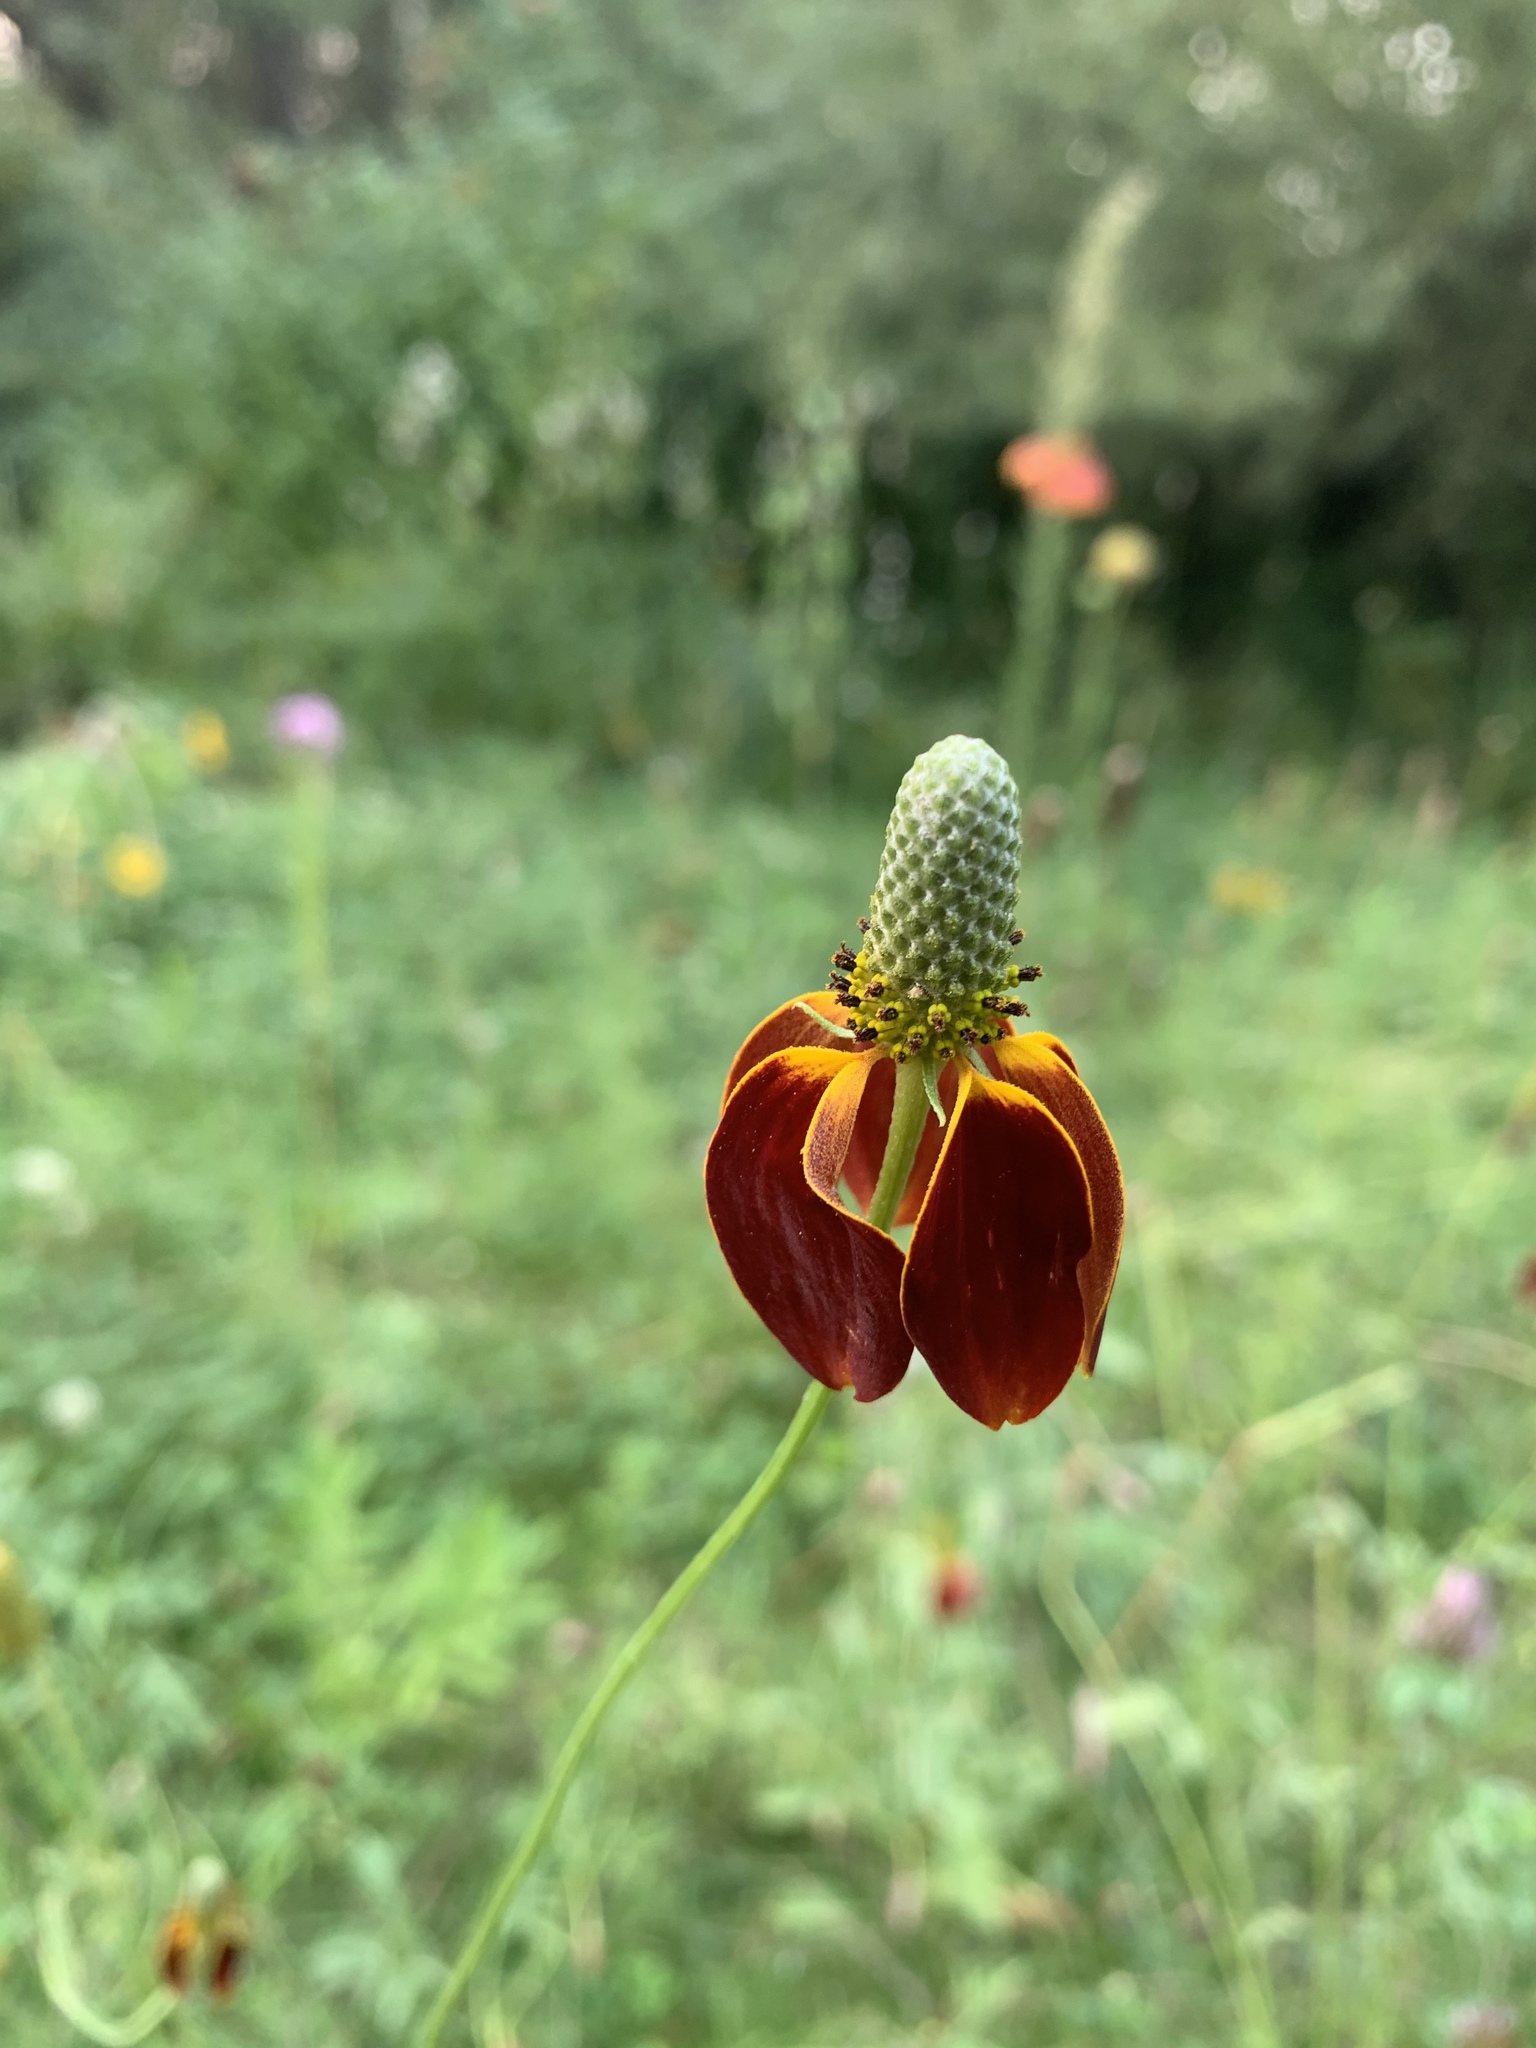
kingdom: Plantae
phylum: Tracheophyta
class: Magnoliopsida
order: Asterales
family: Asteraceae
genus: Ratibida
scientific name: Ratibida columnifera
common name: Prairie coneflower
